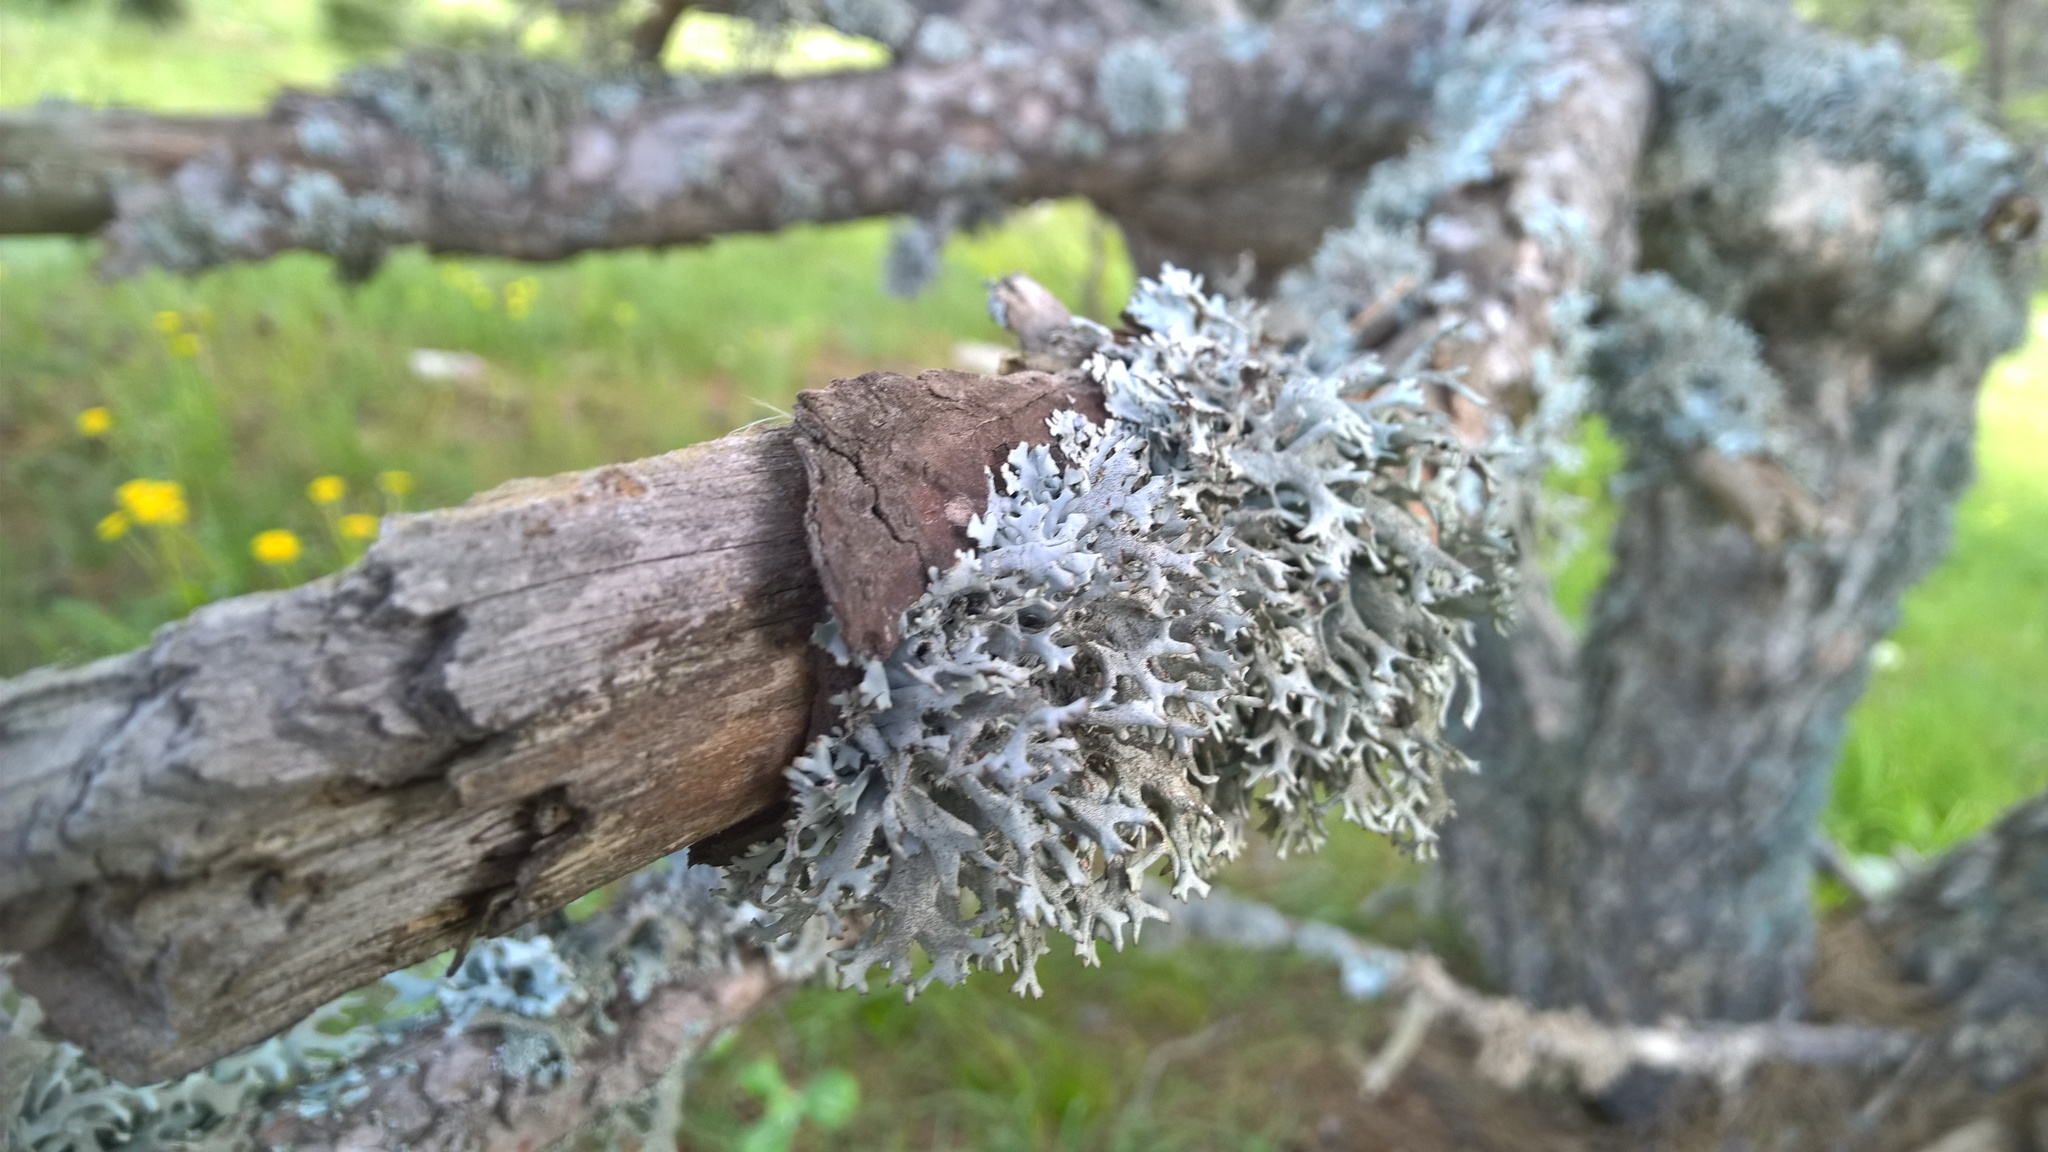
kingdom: Fungi
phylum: Ascomycota
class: Lecanoromycetes
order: Lecanorales
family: Parmeliaceae
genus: Pseudevernia
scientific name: Pseudevernia furfuracea
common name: Tree moss
